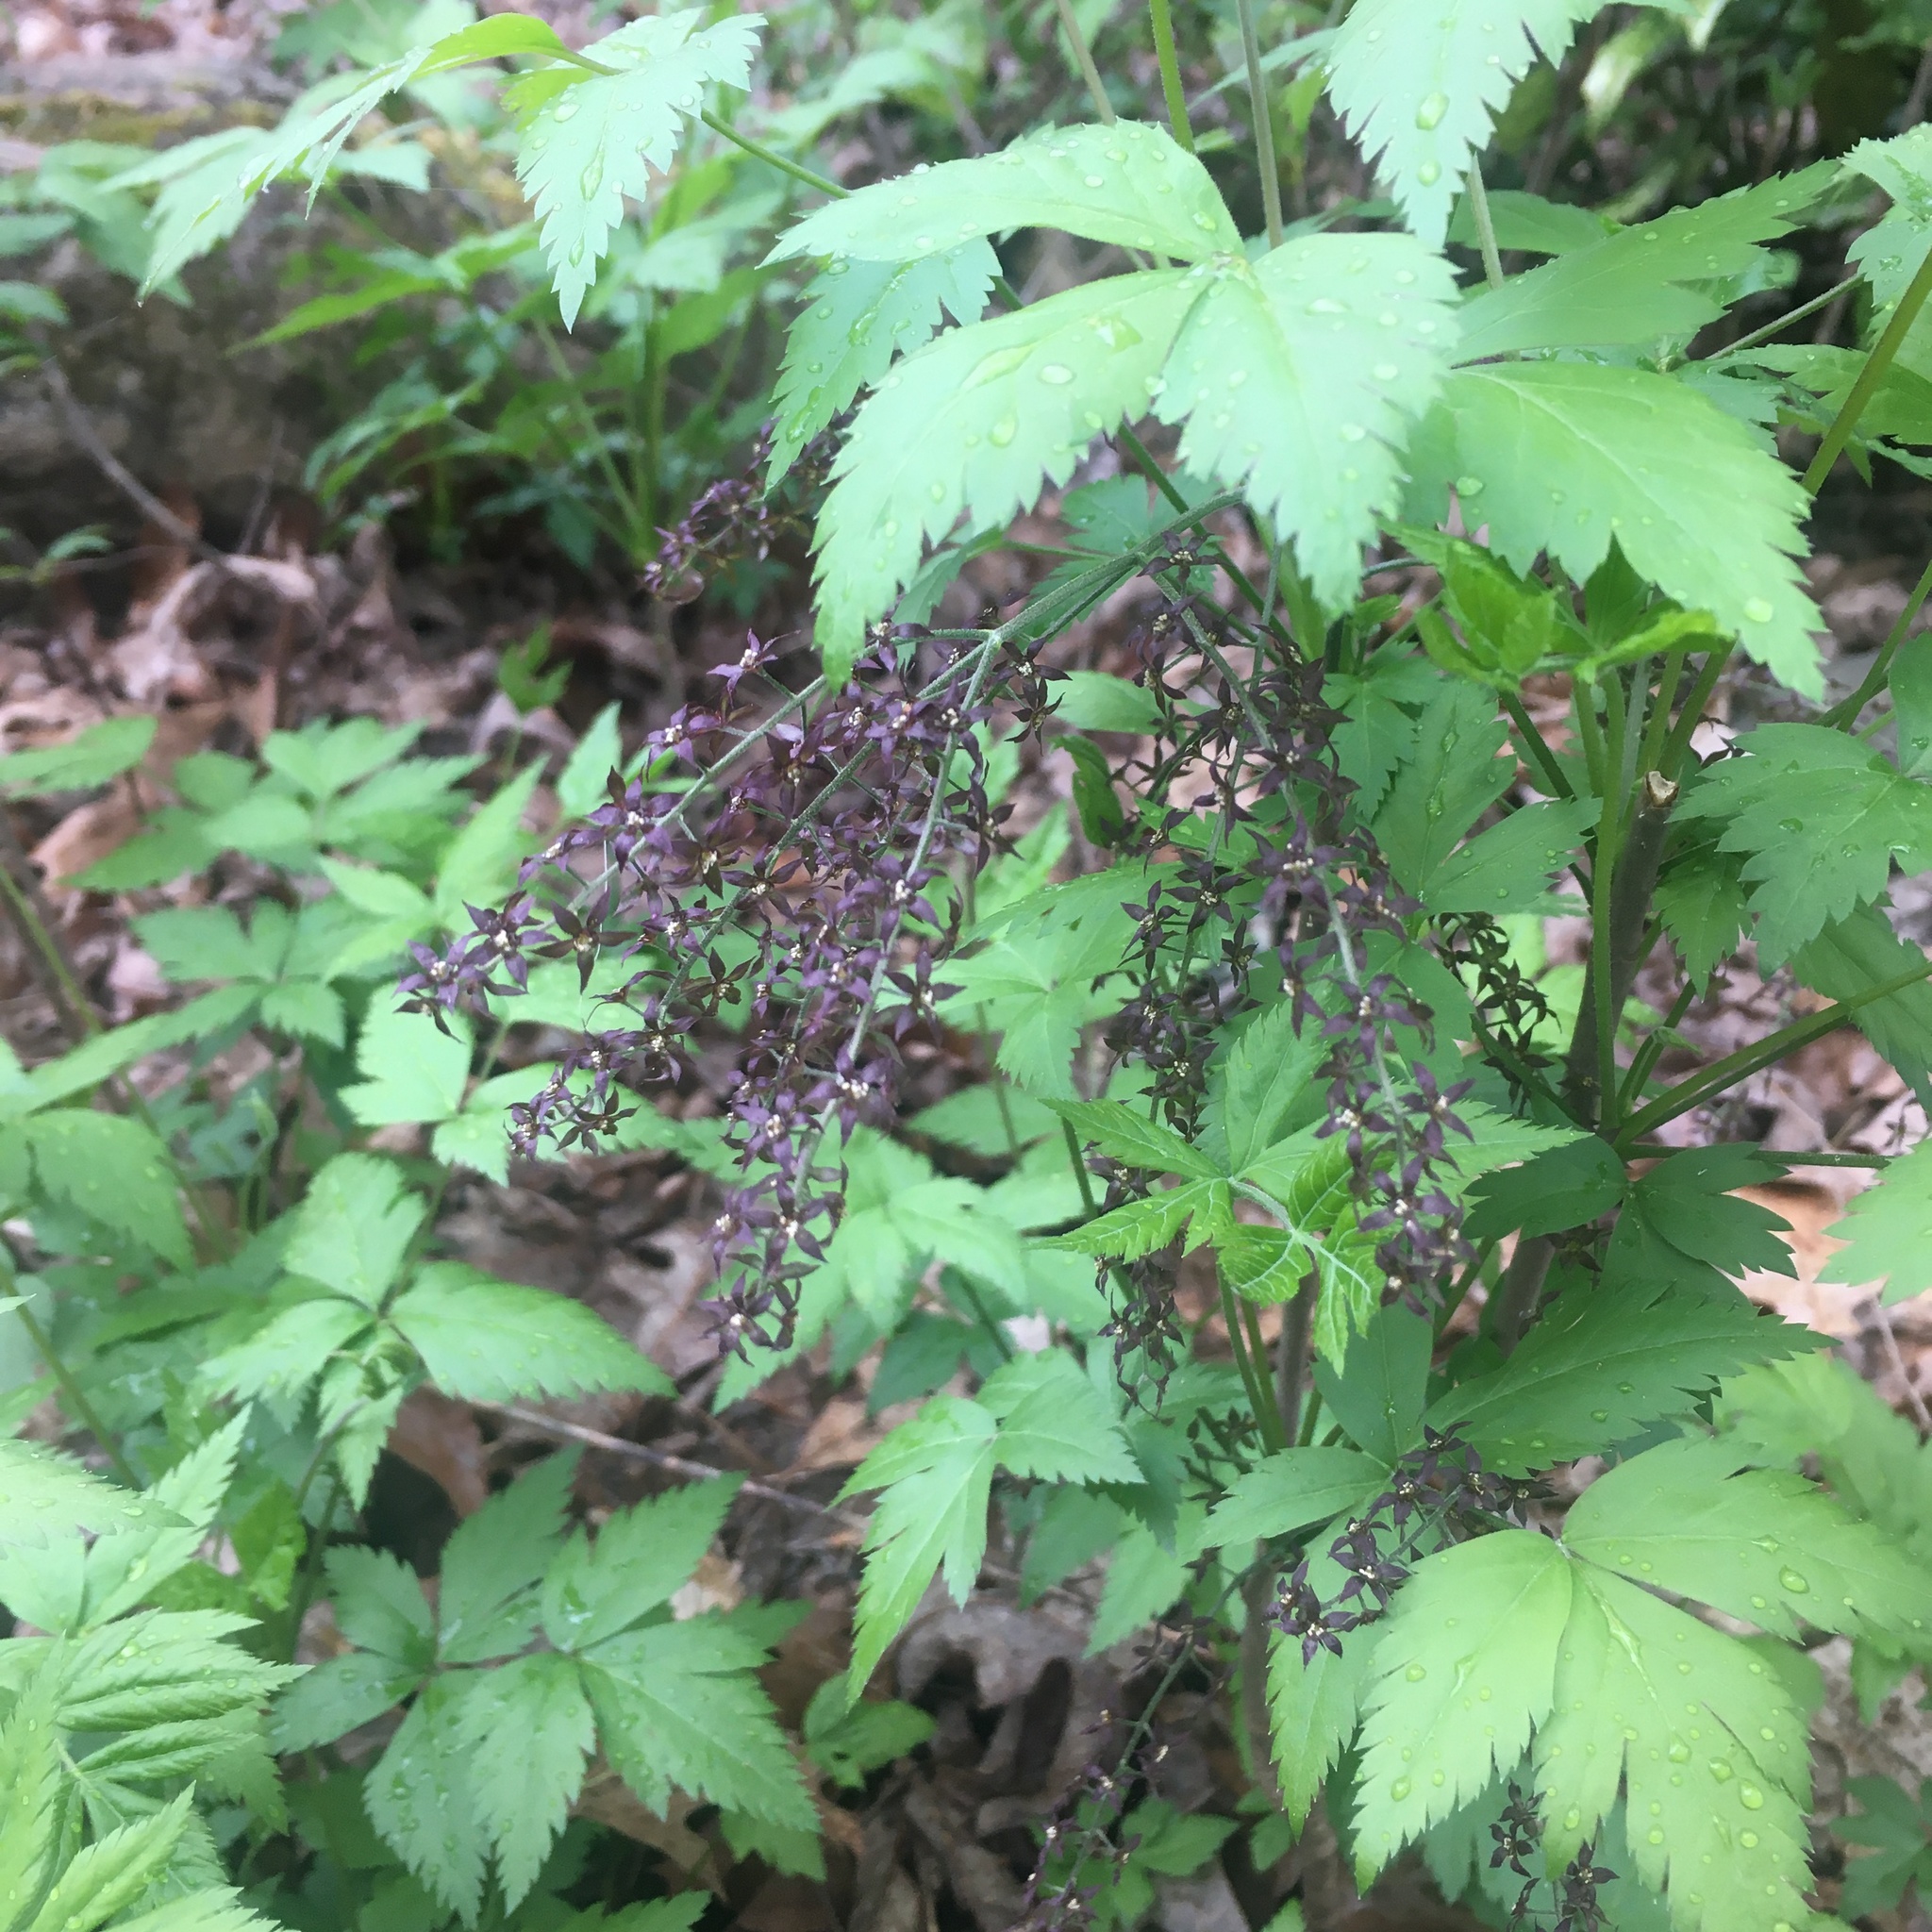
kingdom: Plantae
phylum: Tracheophyta
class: Magnoliopsida
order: Ranunculales
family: Ranunculaceae
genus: Xanthorhiza
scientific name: Xanthorhiza simplicissima
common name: Yellowroot
